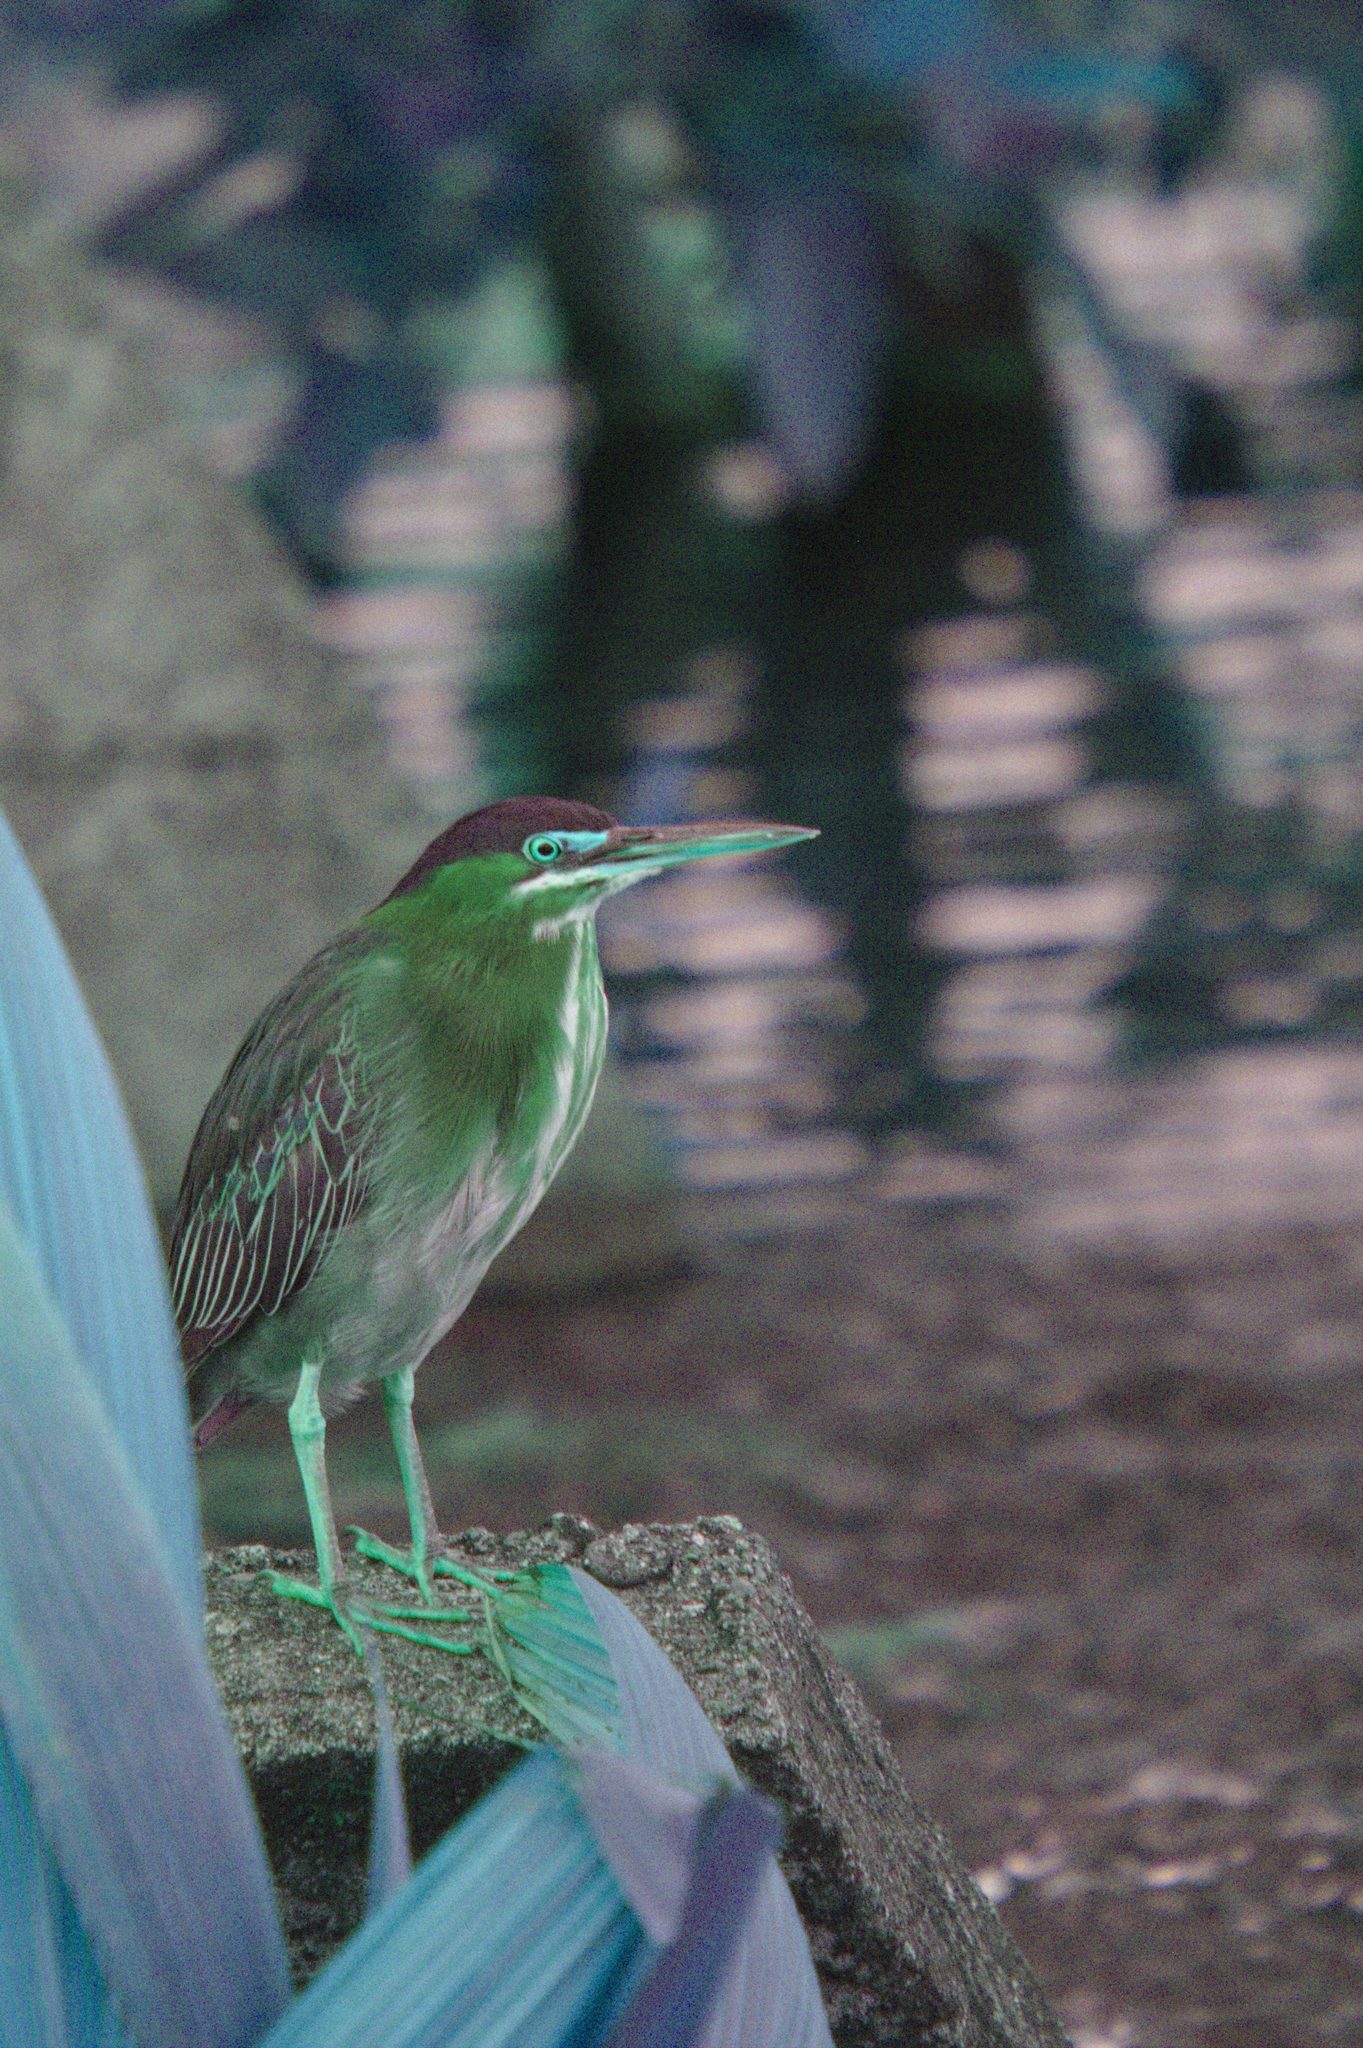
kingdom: Animalia
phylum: Chordata
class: Aves
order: Pelecaniformes
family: Ardeidae
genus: Butorides
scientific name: Butorides virescens
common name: Green heron
